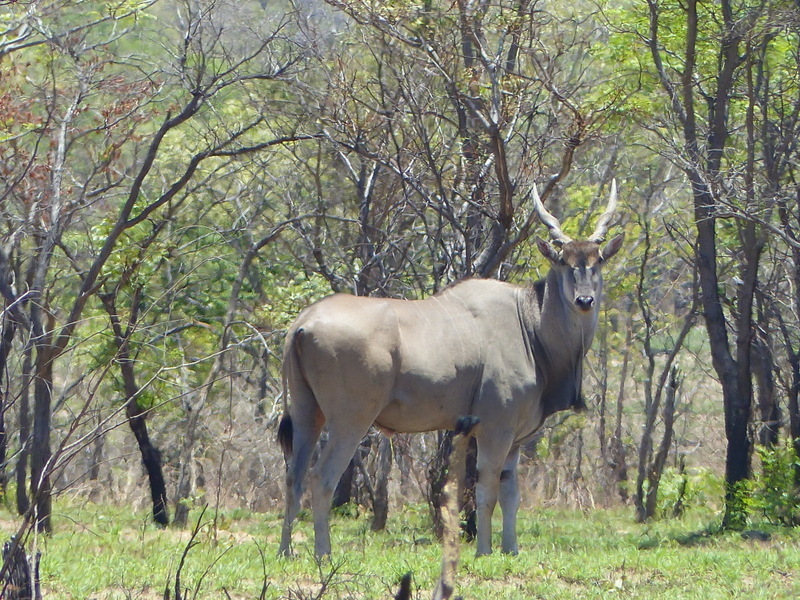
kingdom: Animalia
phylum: Chordata
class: Mammalia
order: Artiodactyla
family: Bovidae
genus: Taurotragus
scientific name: Taurotragus oryx
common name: Common eland
